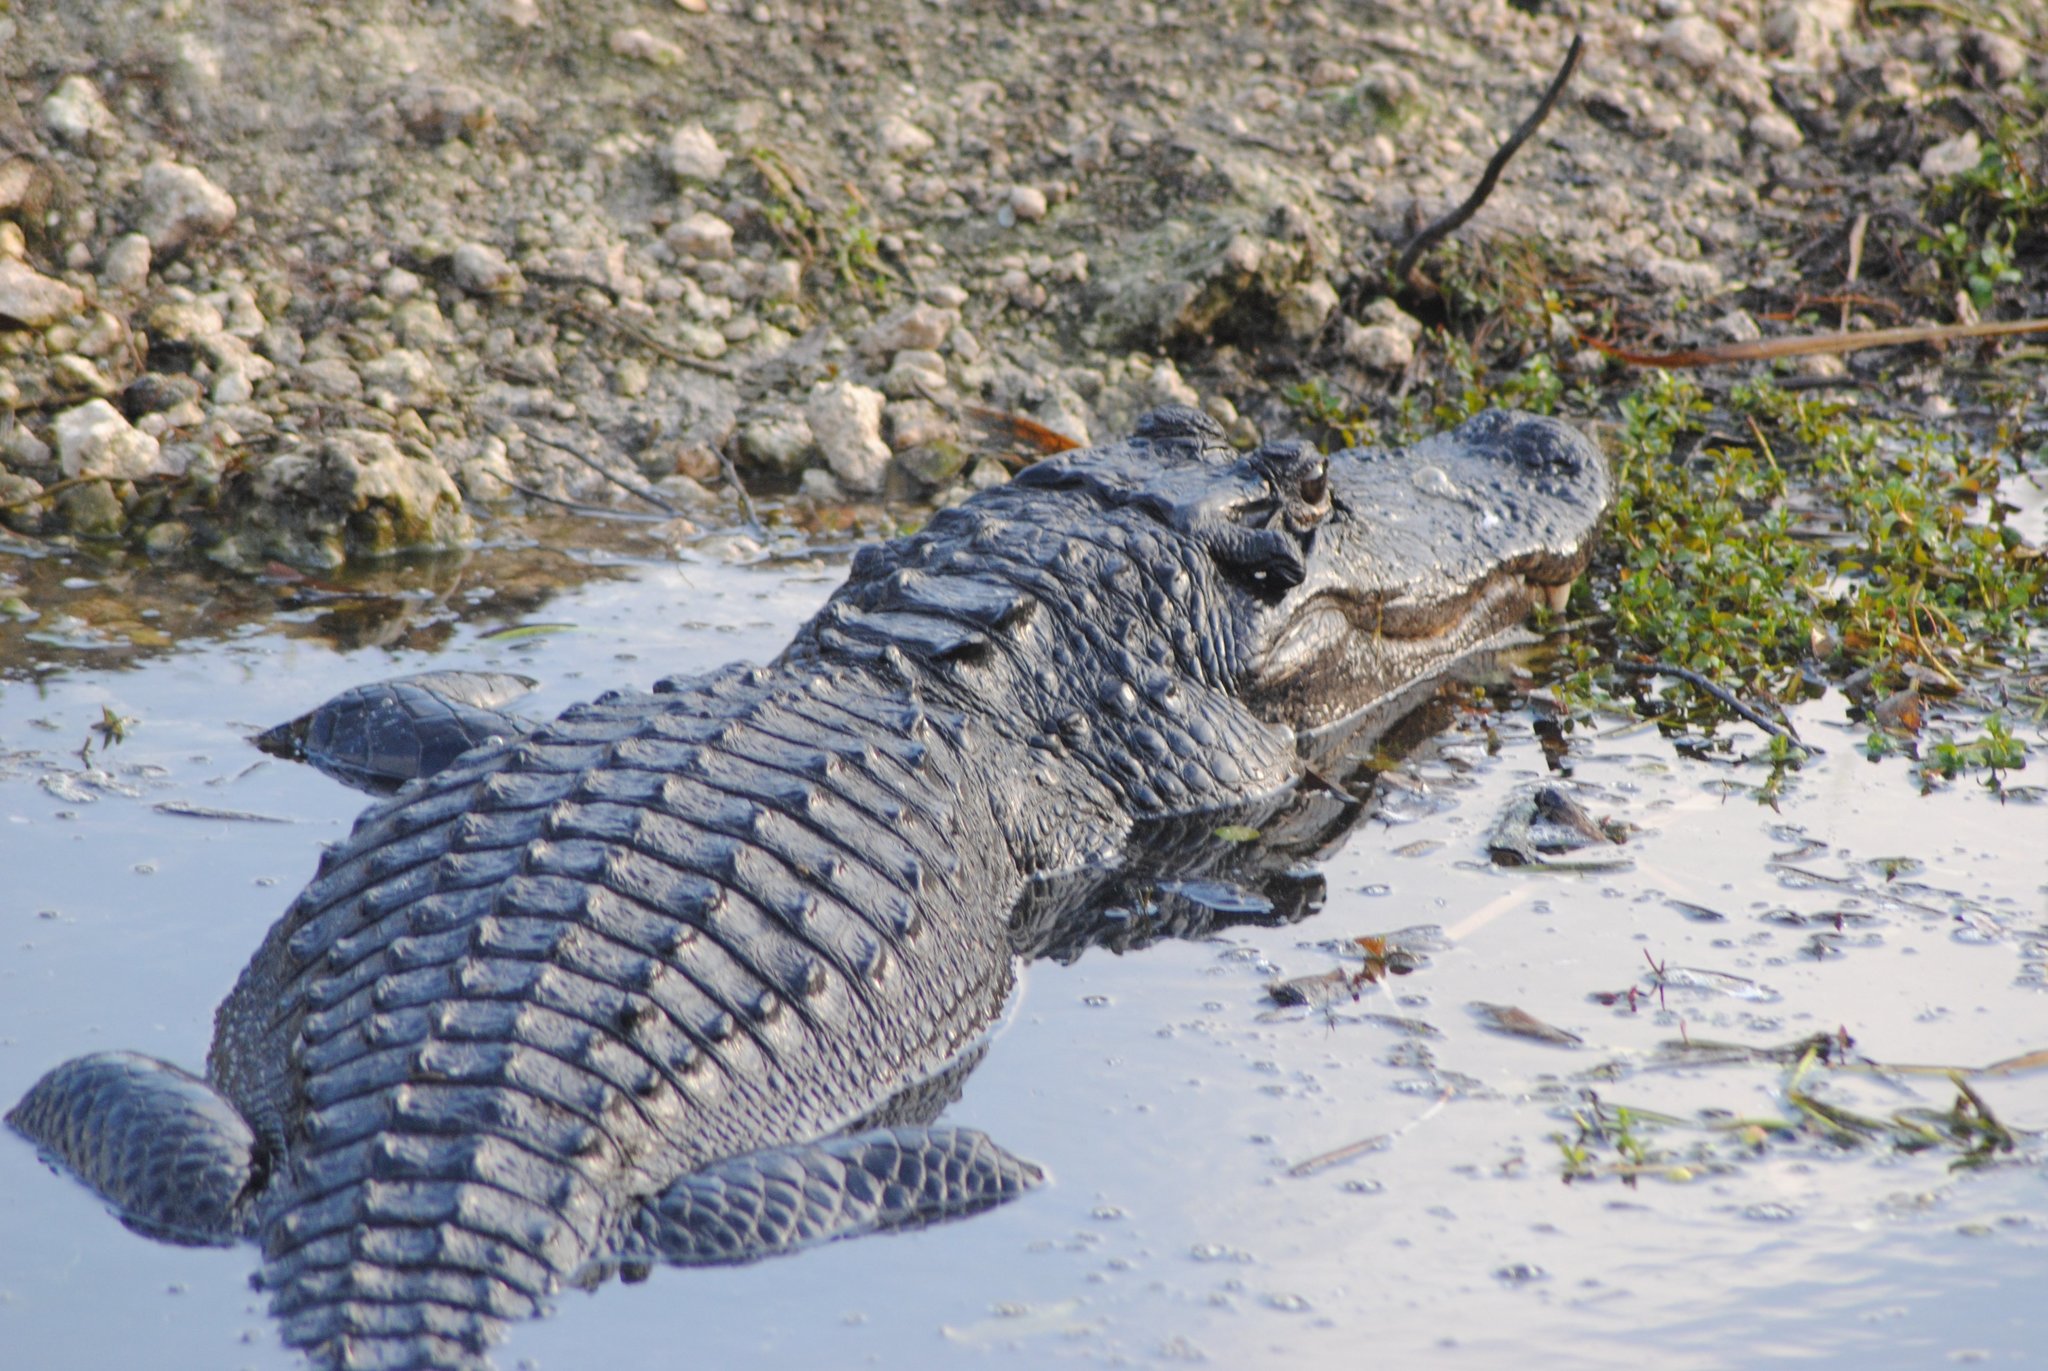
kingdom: Animalia
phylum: Chordata
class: Crocodylia
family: Alligatoridae
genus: Alligator
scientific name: Alligator mississippiensis
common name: American alligator
